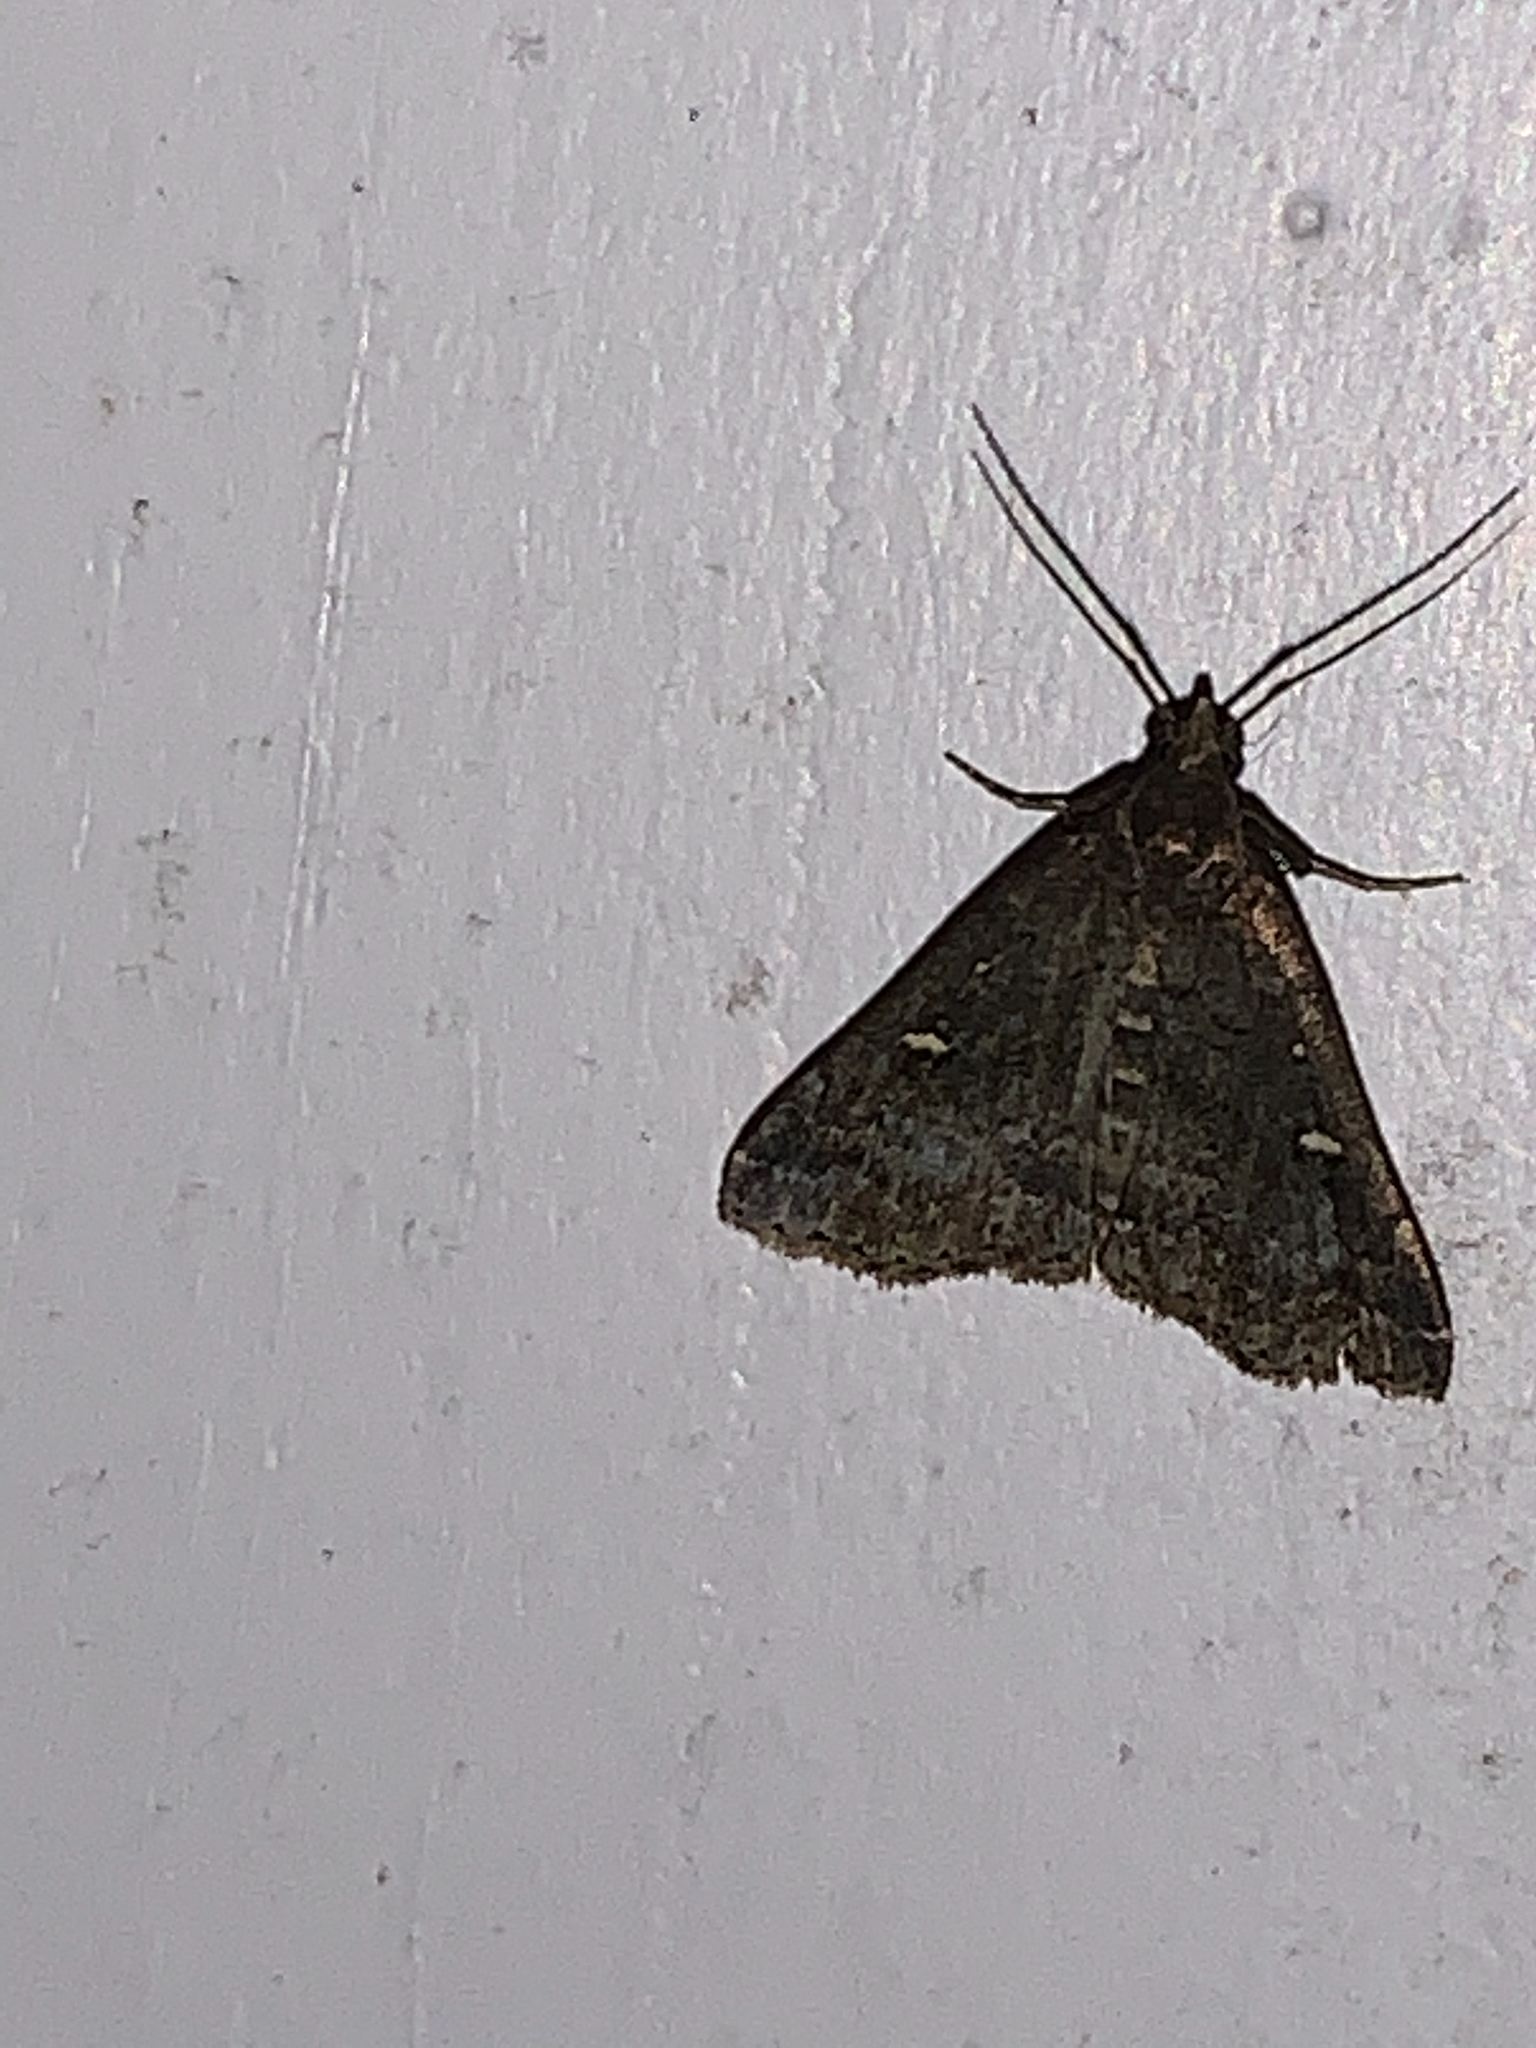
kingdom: Animalia
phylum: Arthropoda
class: Insecta
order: Lepidoptera
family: Erebidae
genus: Tetanolita
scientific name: Tetanolita mynesalis
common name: Smoky tetanolita moth
